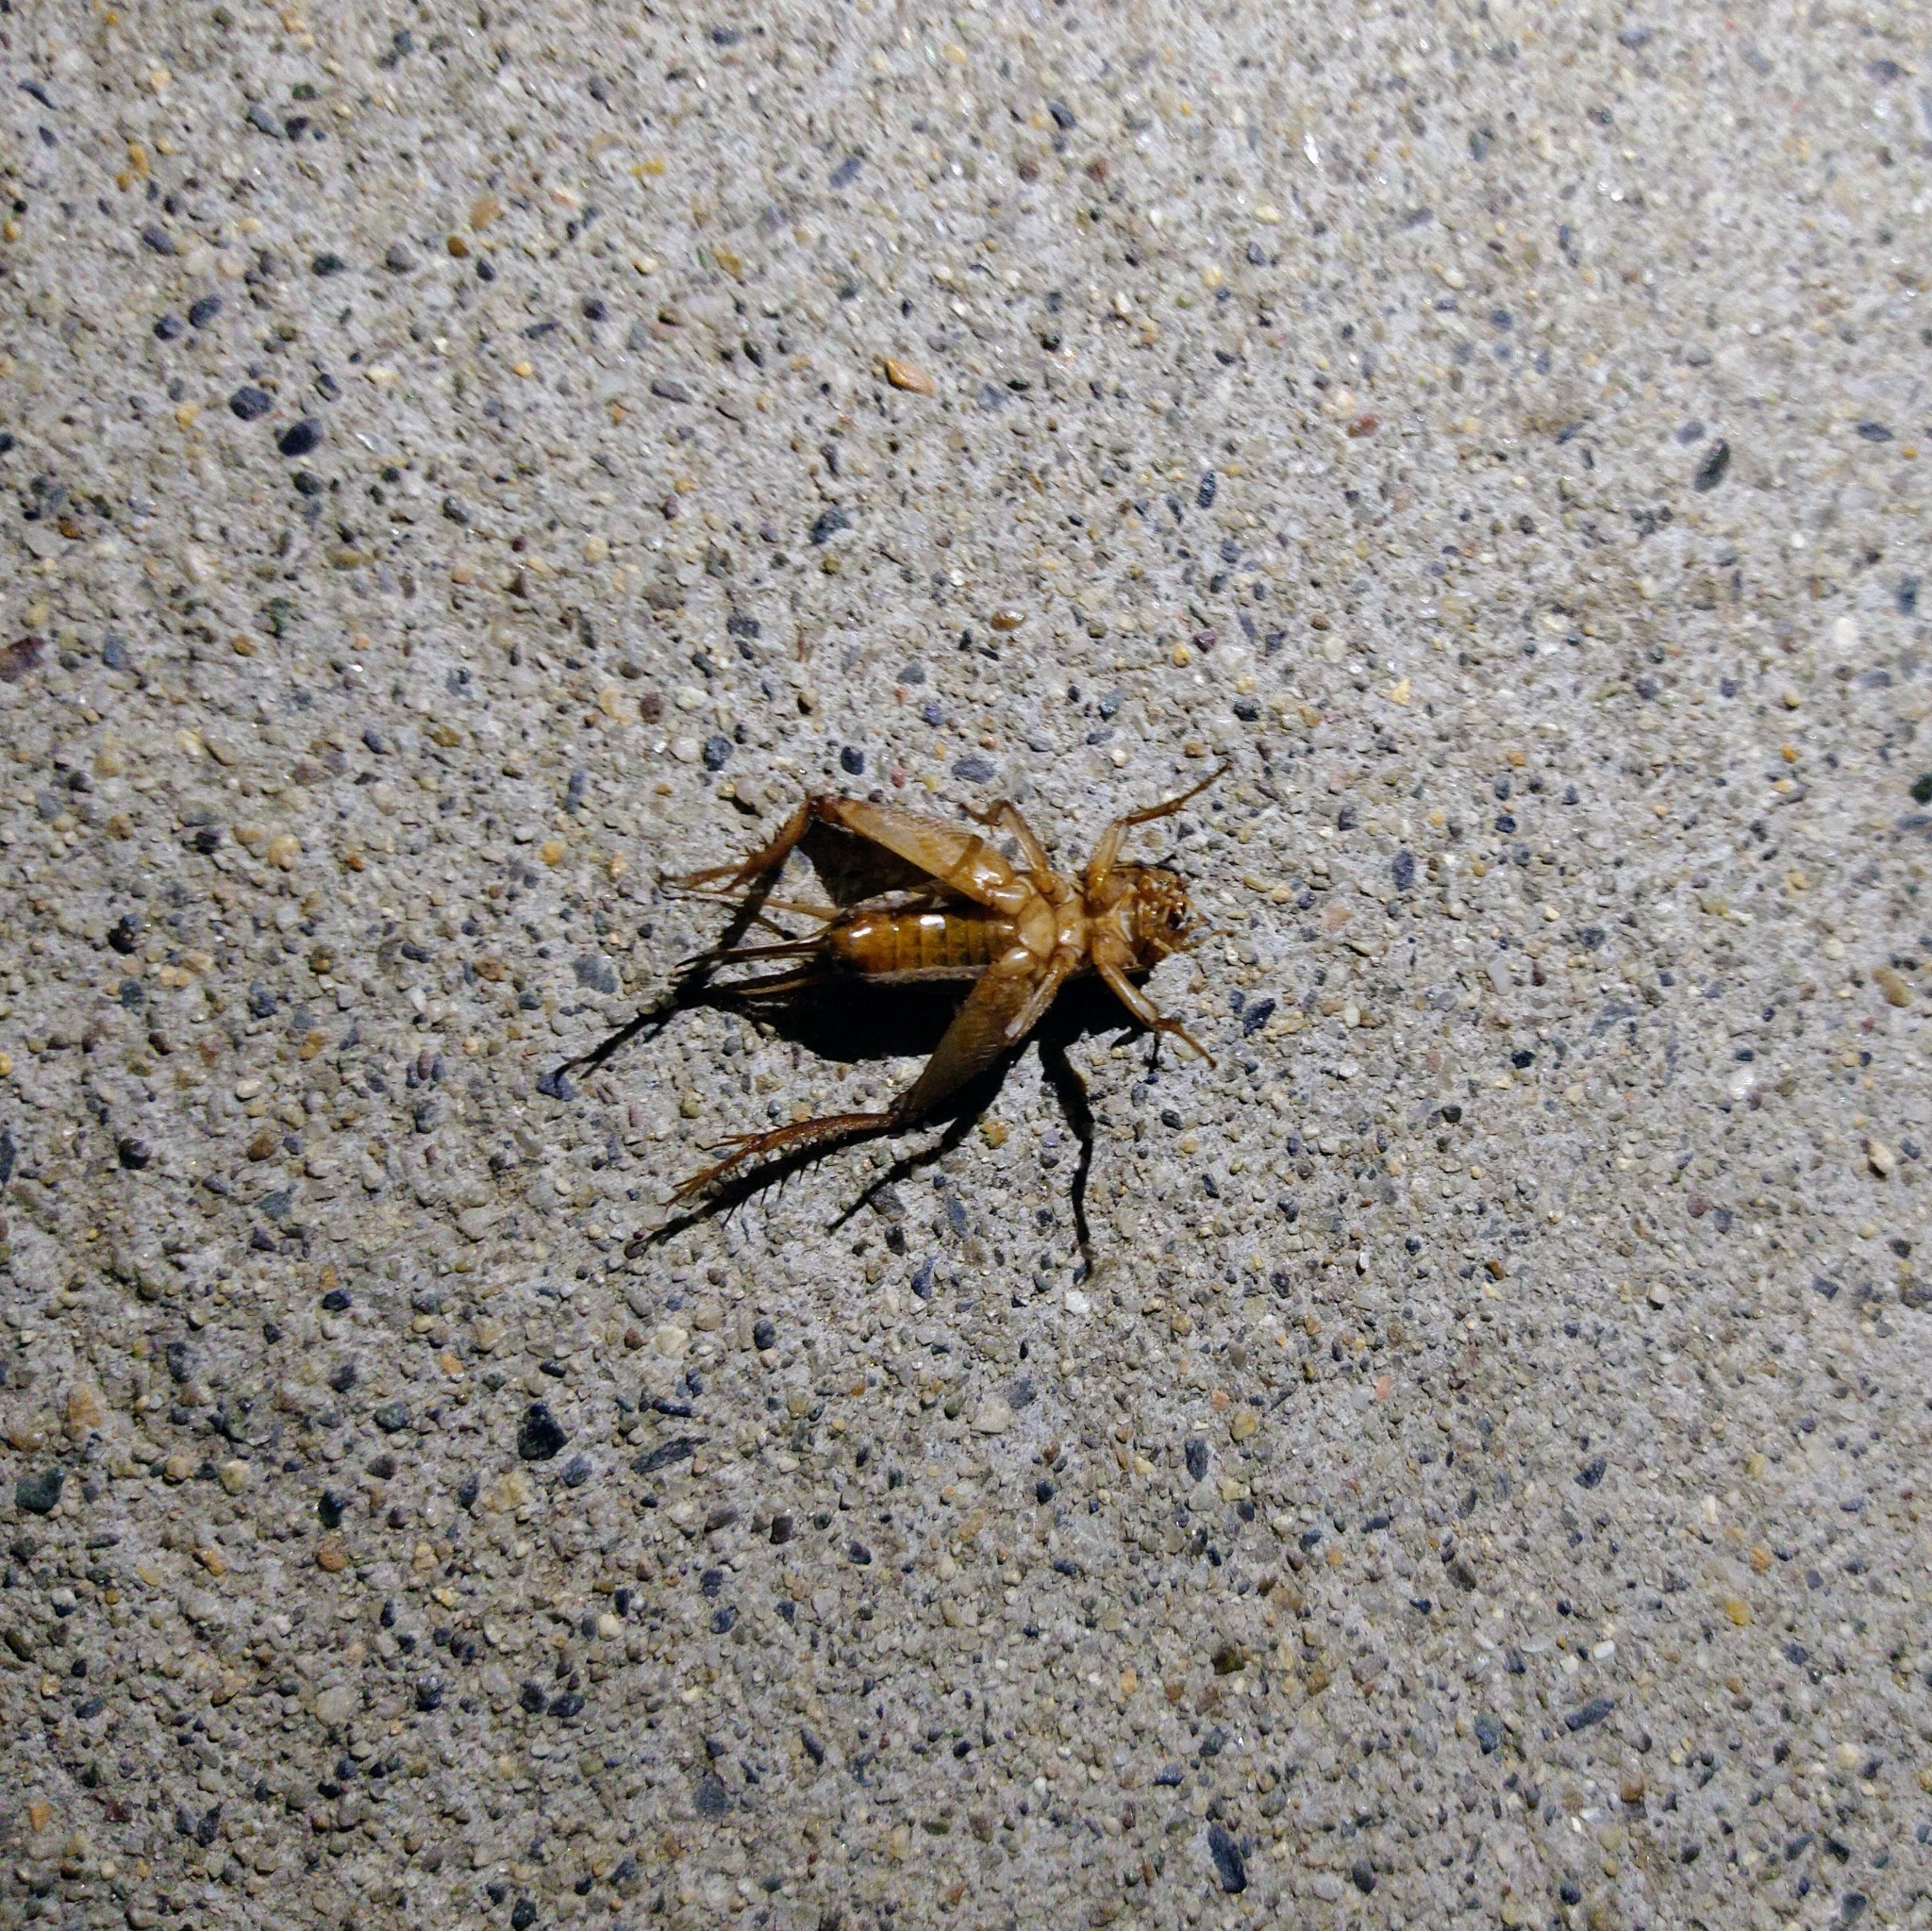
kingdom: Animalia
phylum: Arthropoda
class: Insecta
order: Orthoptera
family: Gryllidae
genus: Gryllodes
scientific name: Gryllodes sigillatus
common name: Tropical house cricket
